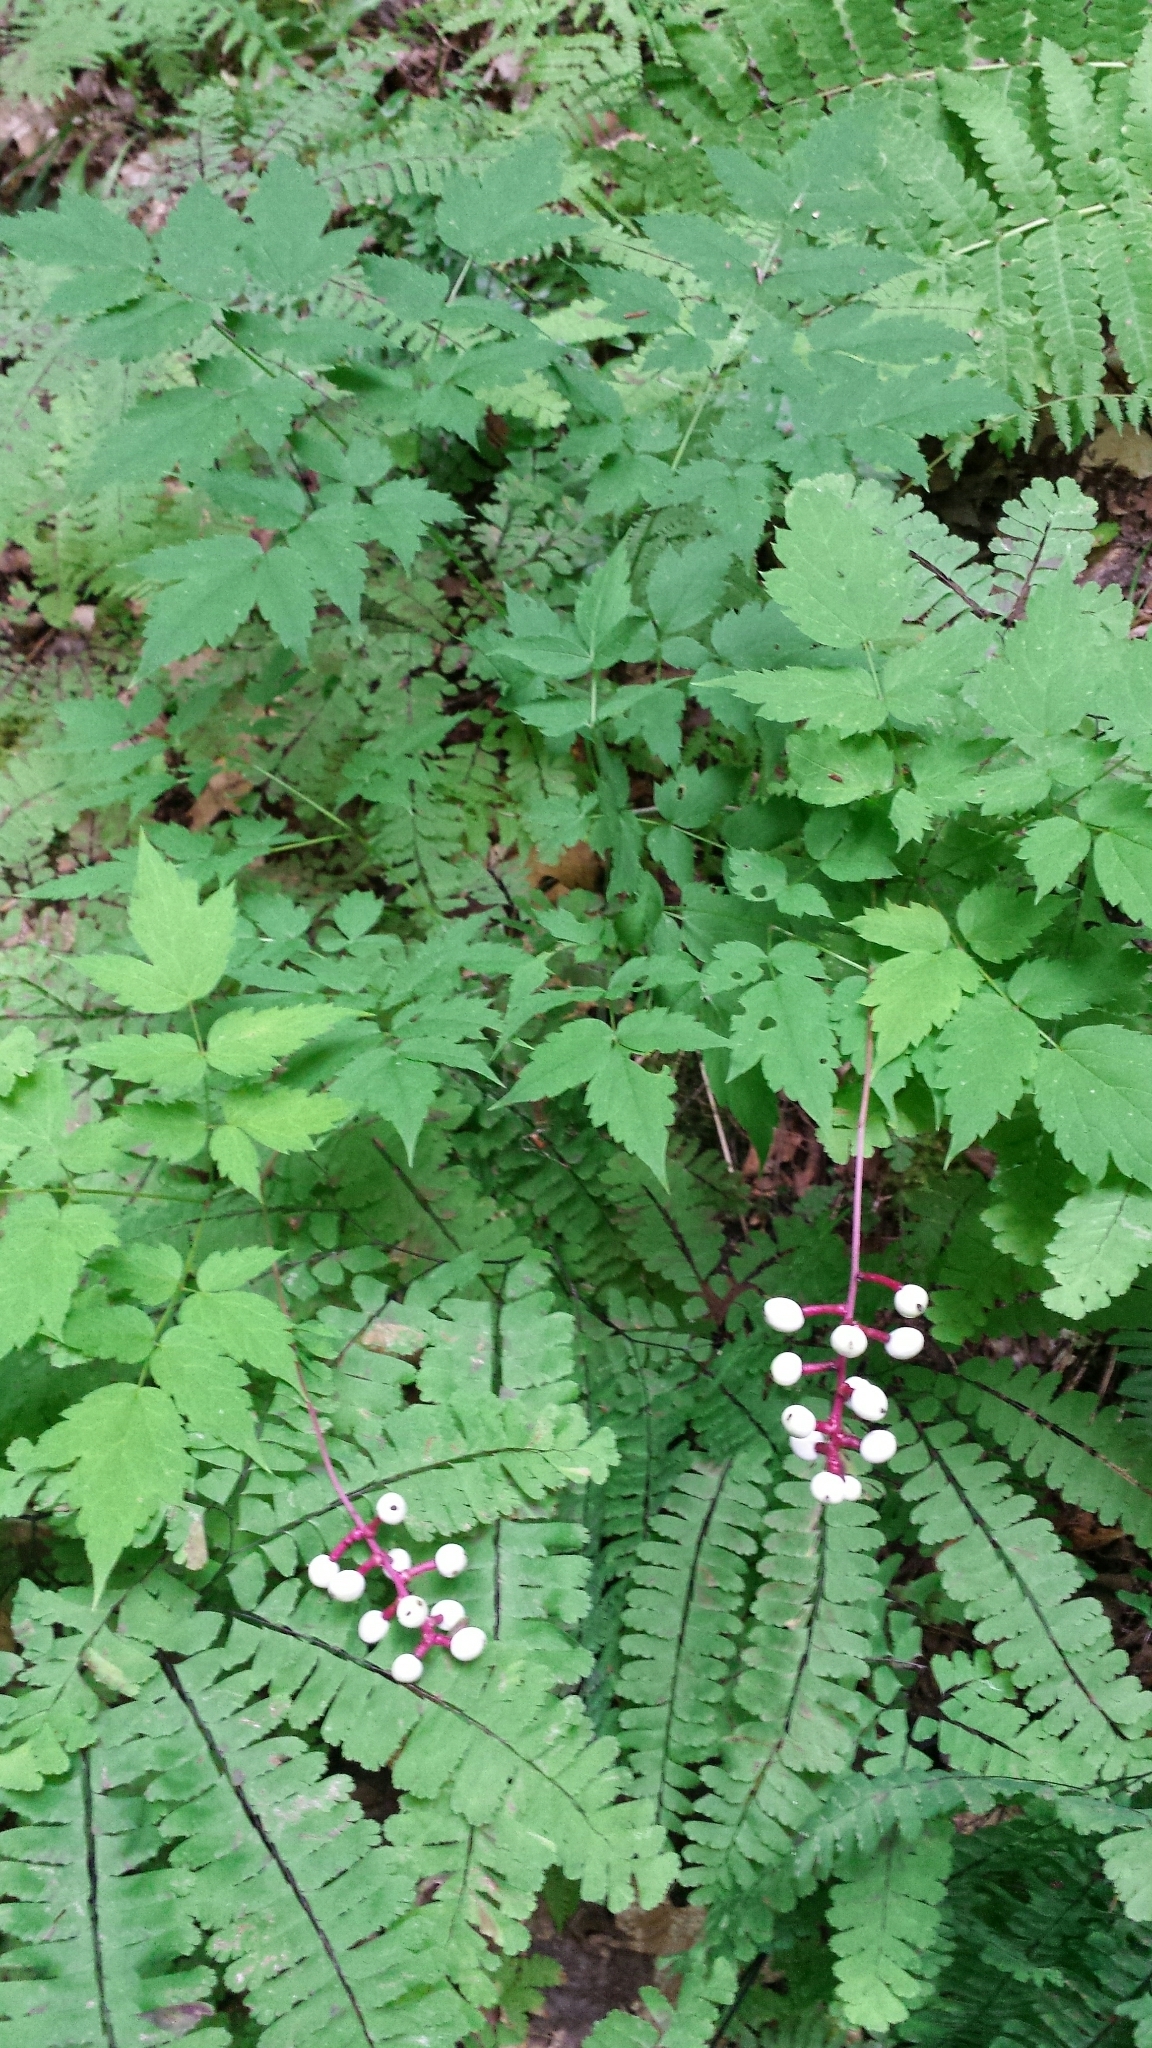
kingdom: Plantae
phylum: Tracheophyta
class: Magnoliopsida
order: Ranunculales
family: Ranunculaceae
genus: Actaea
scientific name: Actaea pachypoda
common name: Doll's-eyes
